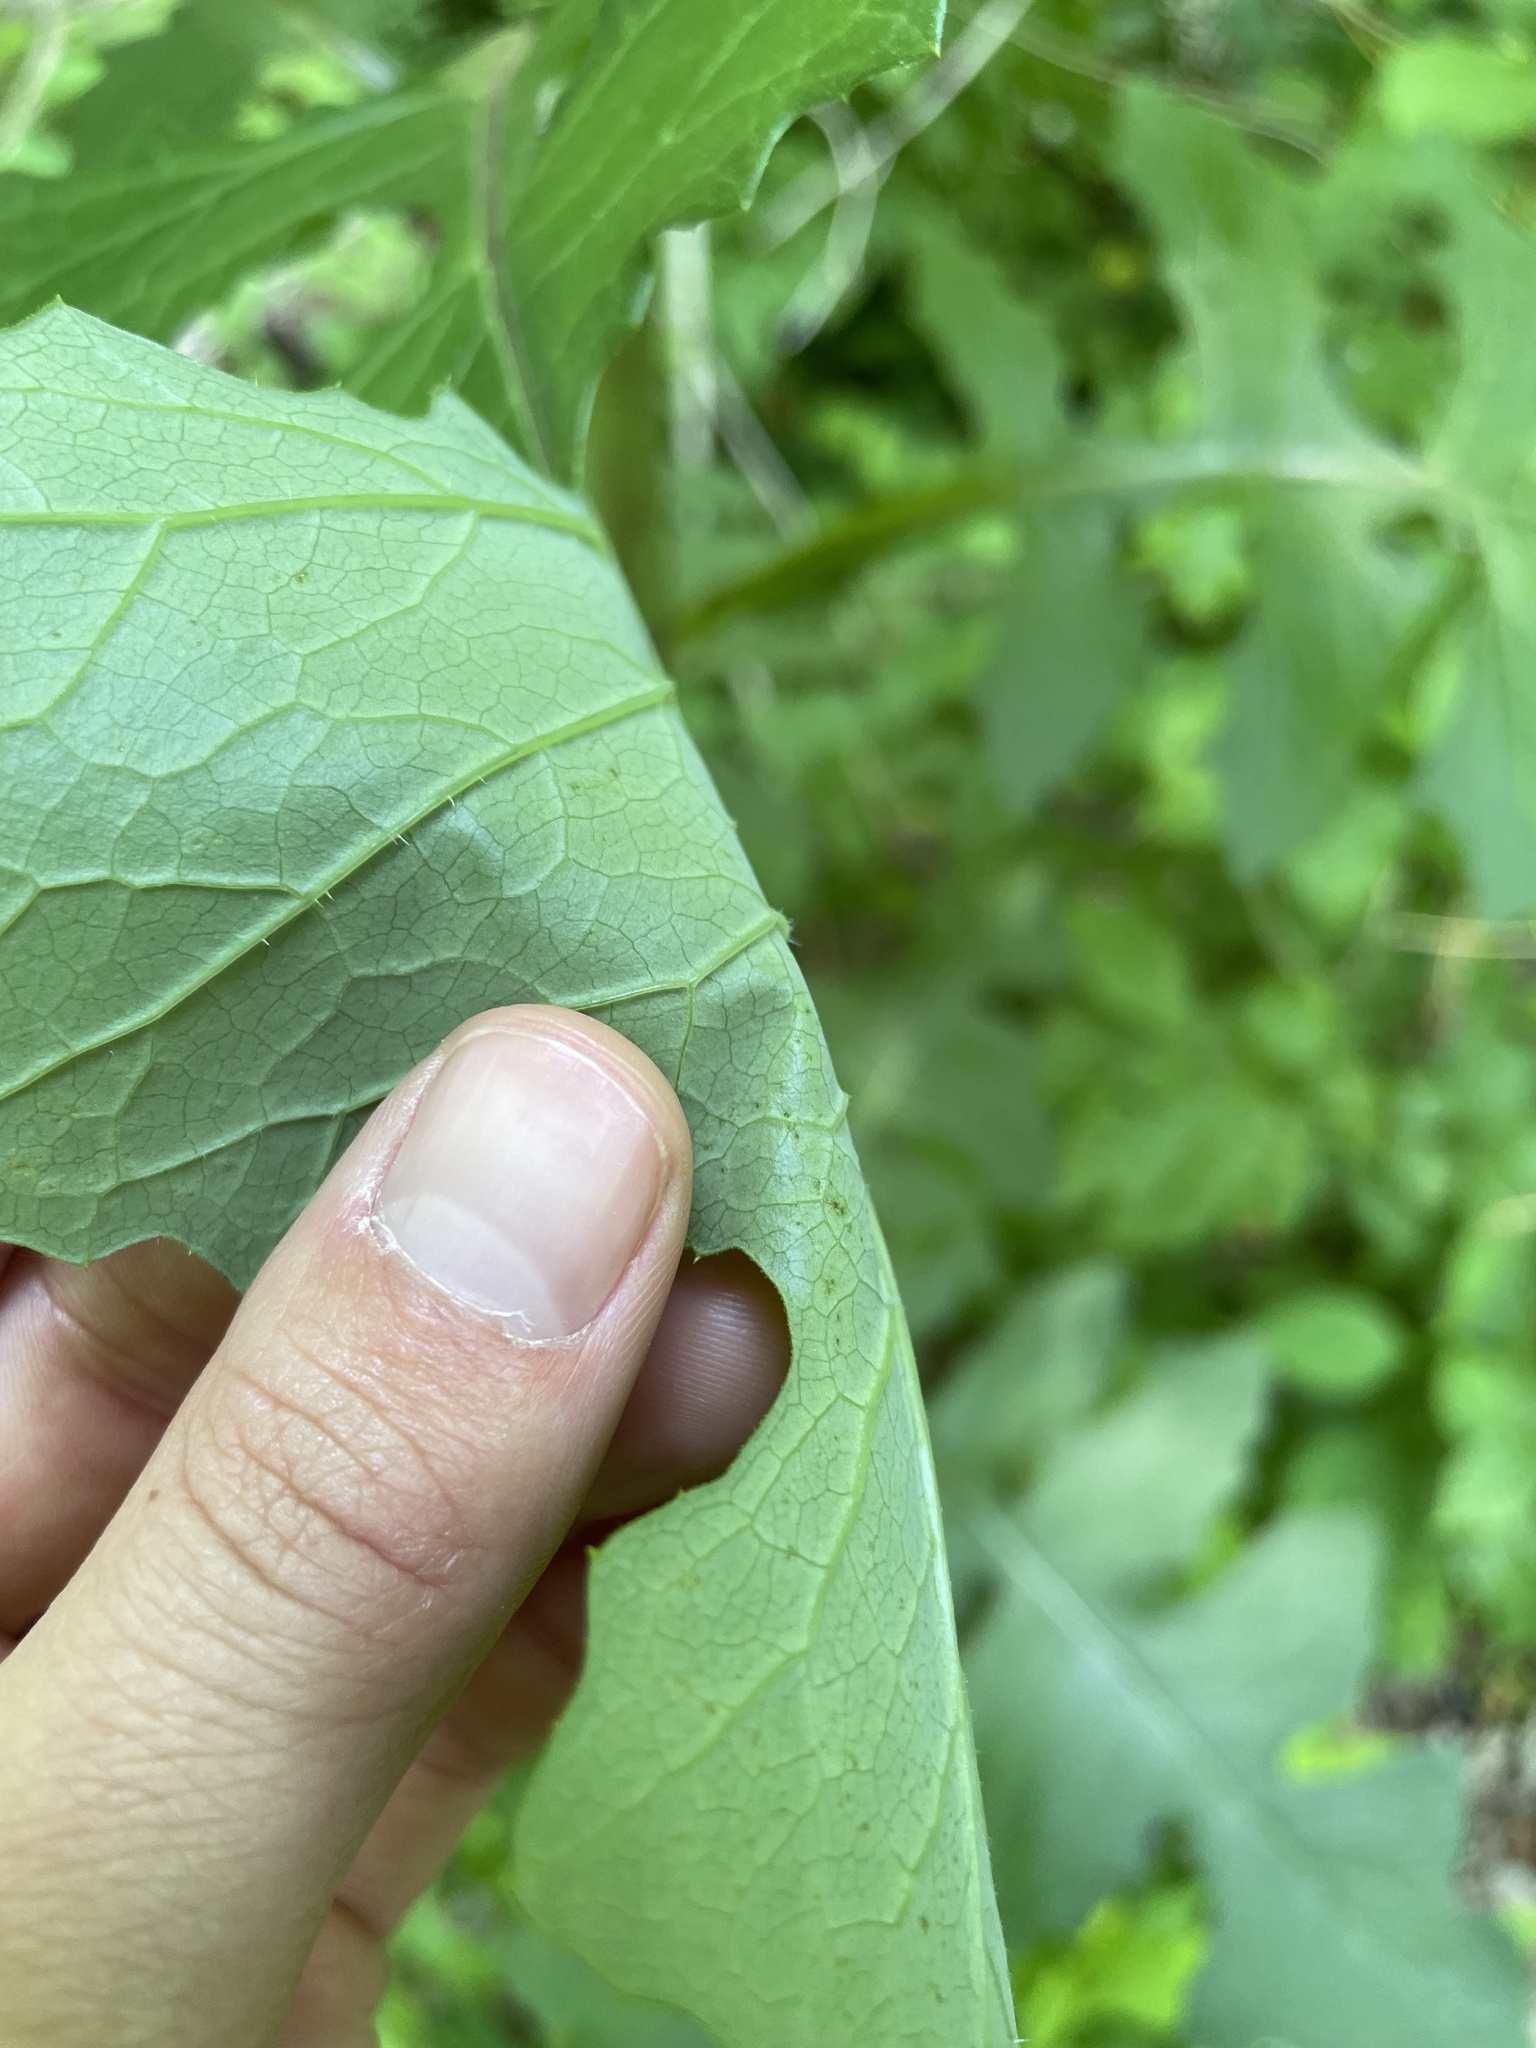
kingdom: Plantae
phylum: Tracheophyta
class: Magnoliopsida
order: Asterales
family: Asteraceae
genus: Lactuca
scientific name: Lactuca biennis
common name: Blue wood lettuce
